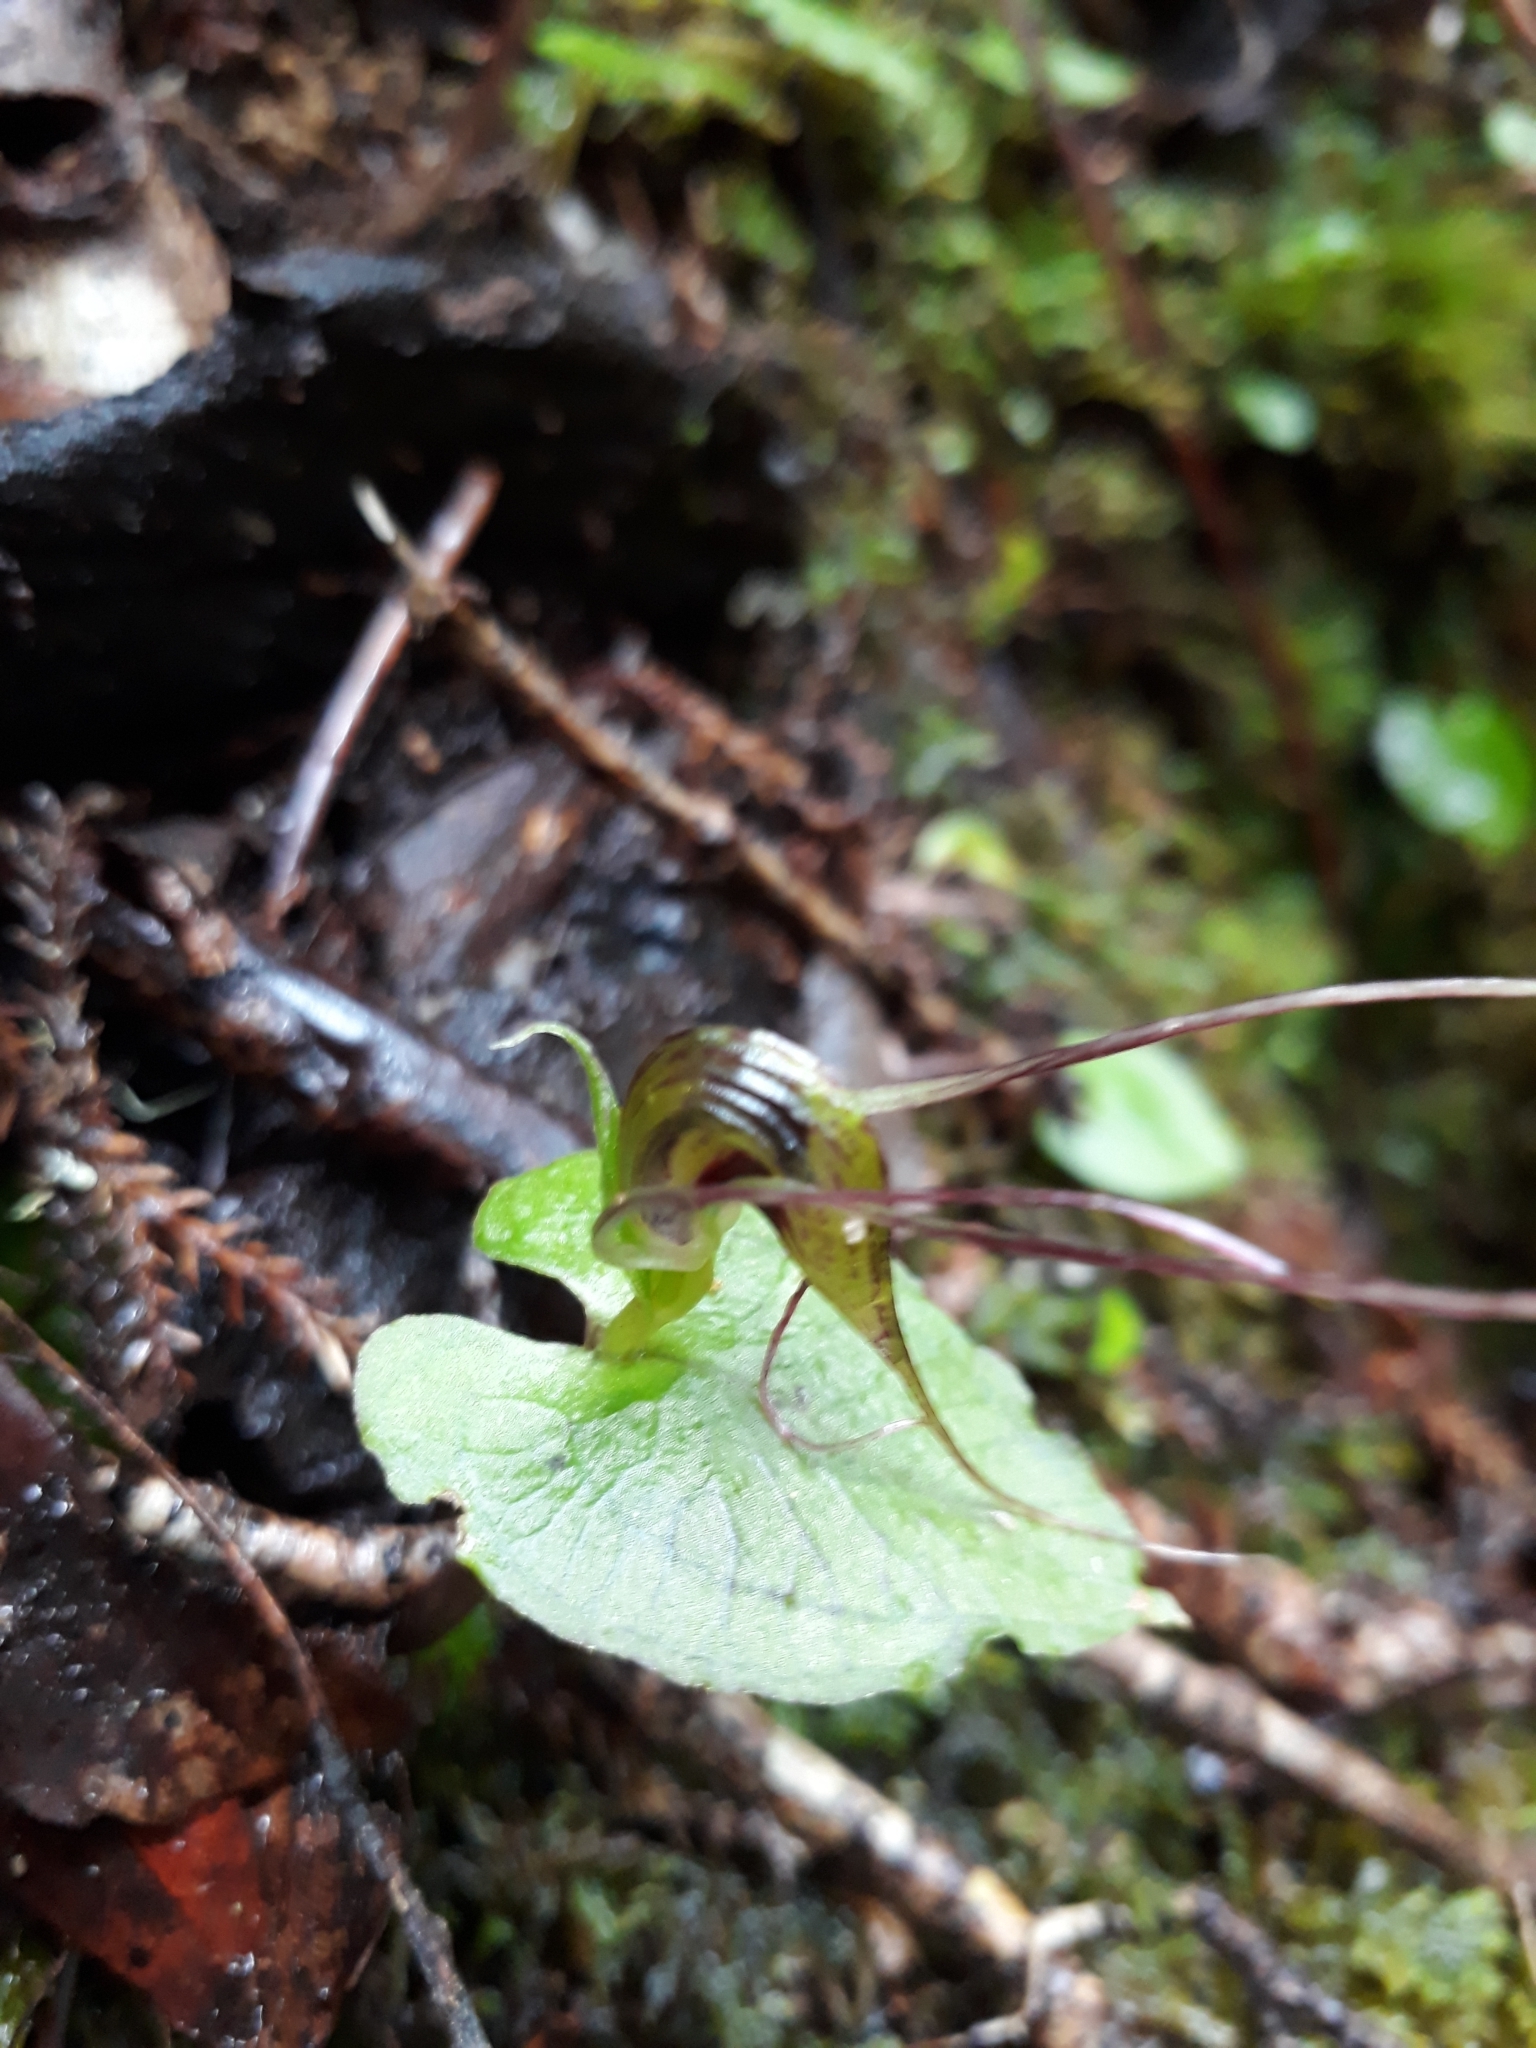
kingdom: Plantae
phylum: Tracheophyta
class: Liliopsida
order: Asparagales
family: Orchidaceae
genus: Corybas
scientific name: Corybas acuminatus
